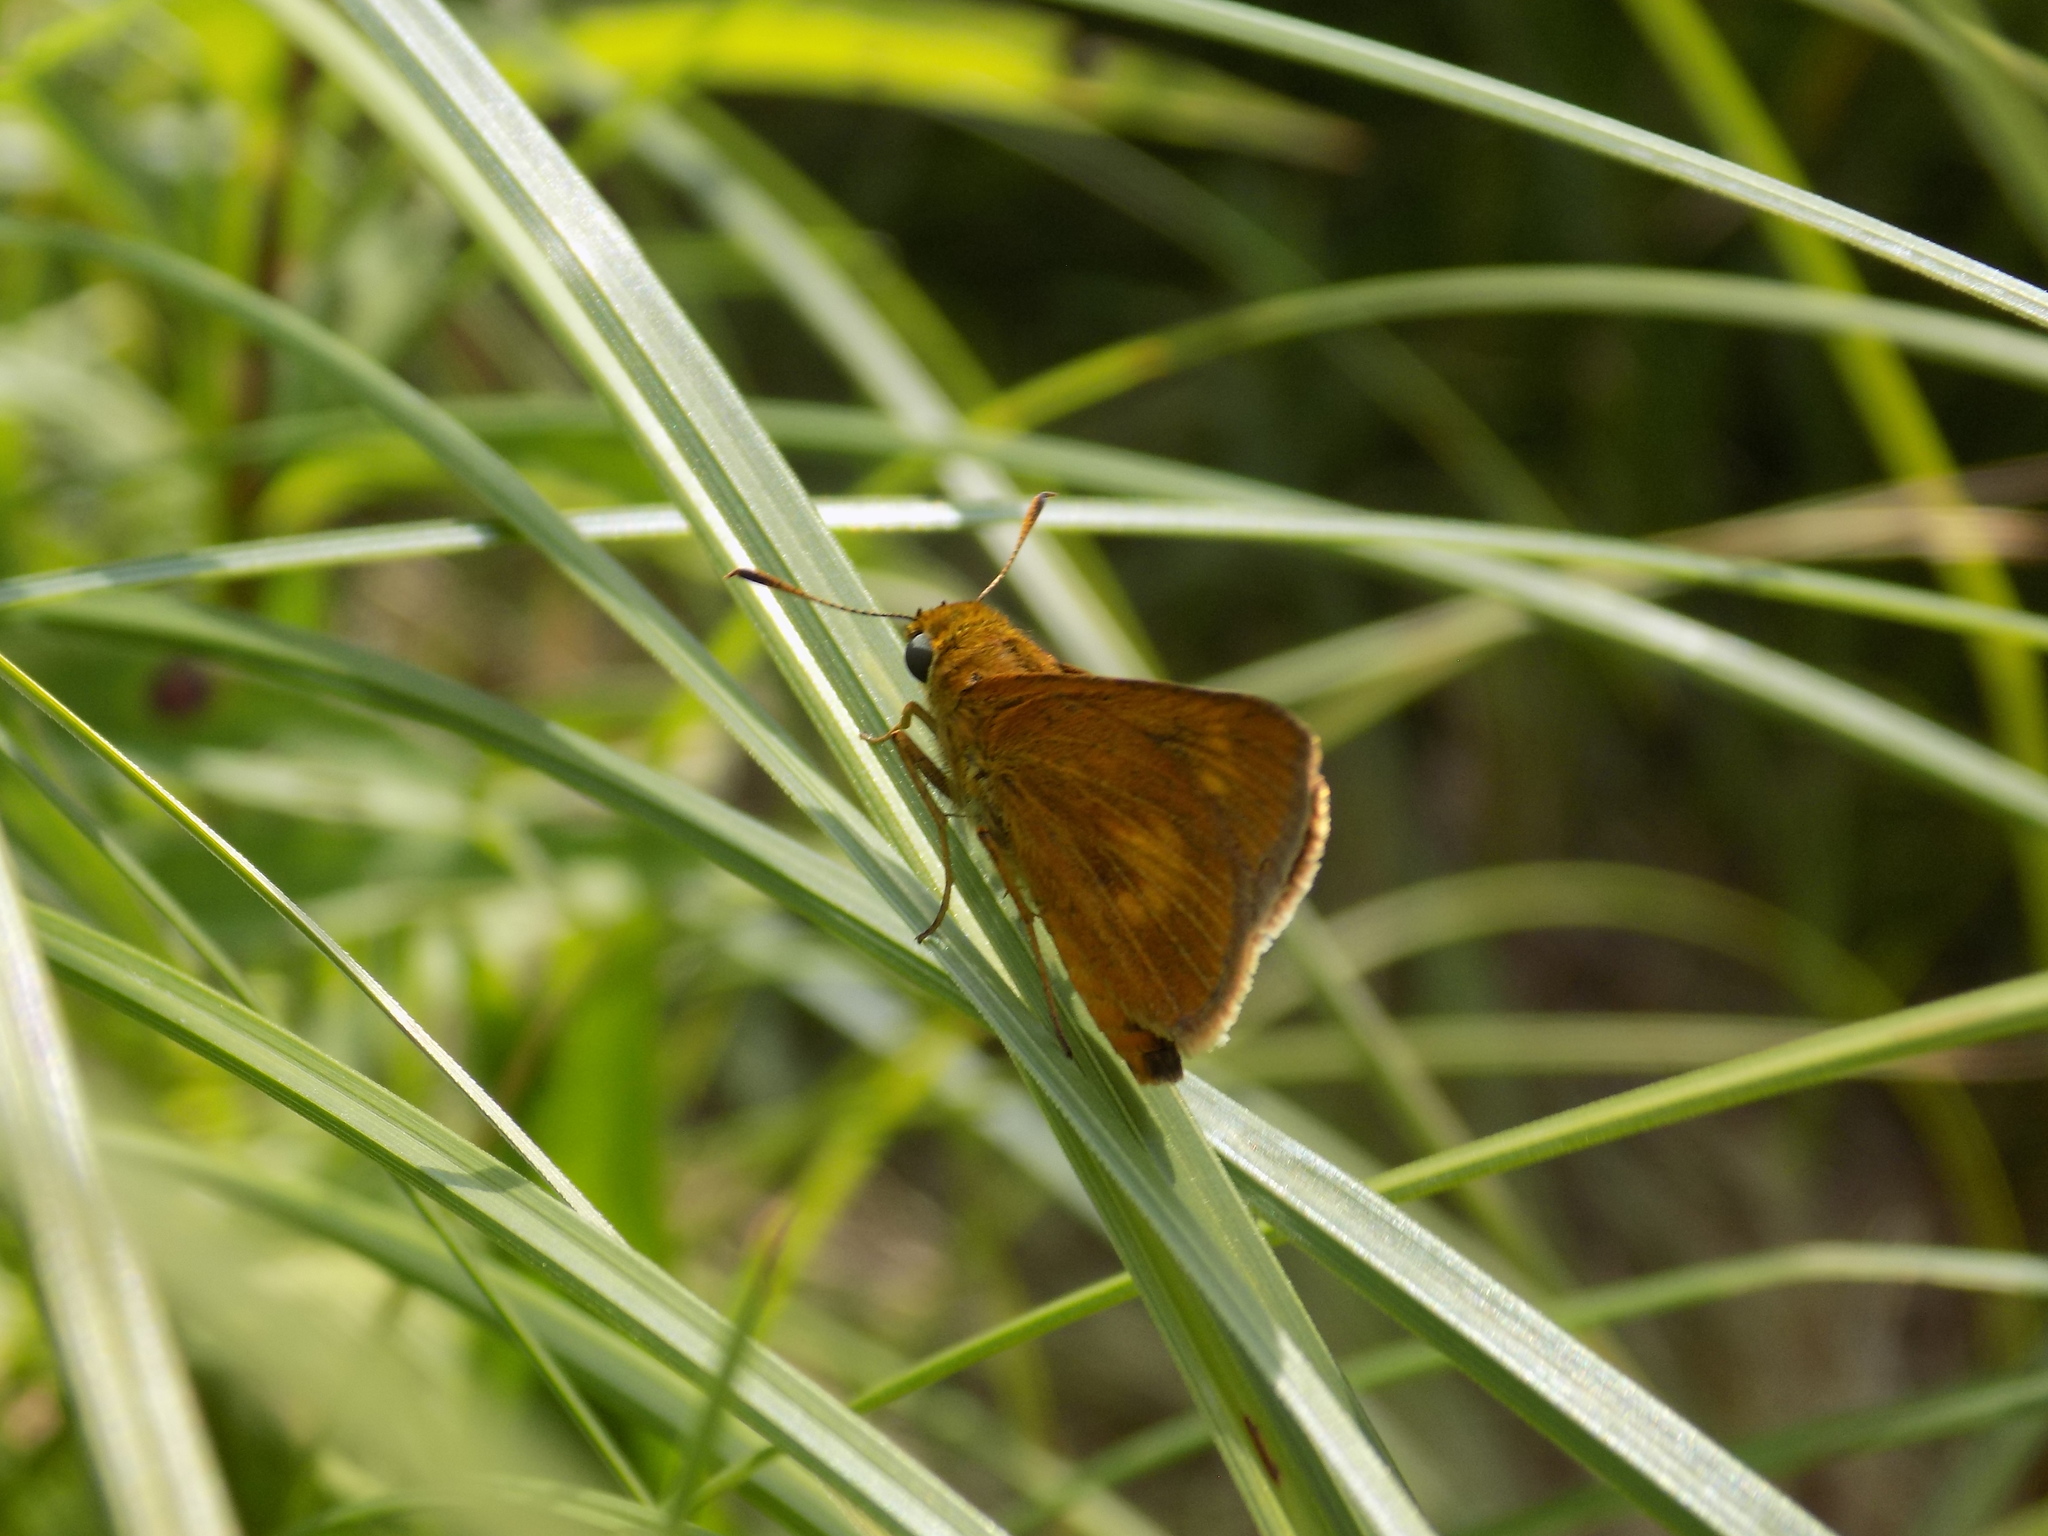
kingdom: Animalia
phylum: Arthropoda
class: Insecta
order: Lepidoptera
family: Hesperiidae
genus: Euphyes
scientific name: Euphyes conspicua
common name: Black dash
